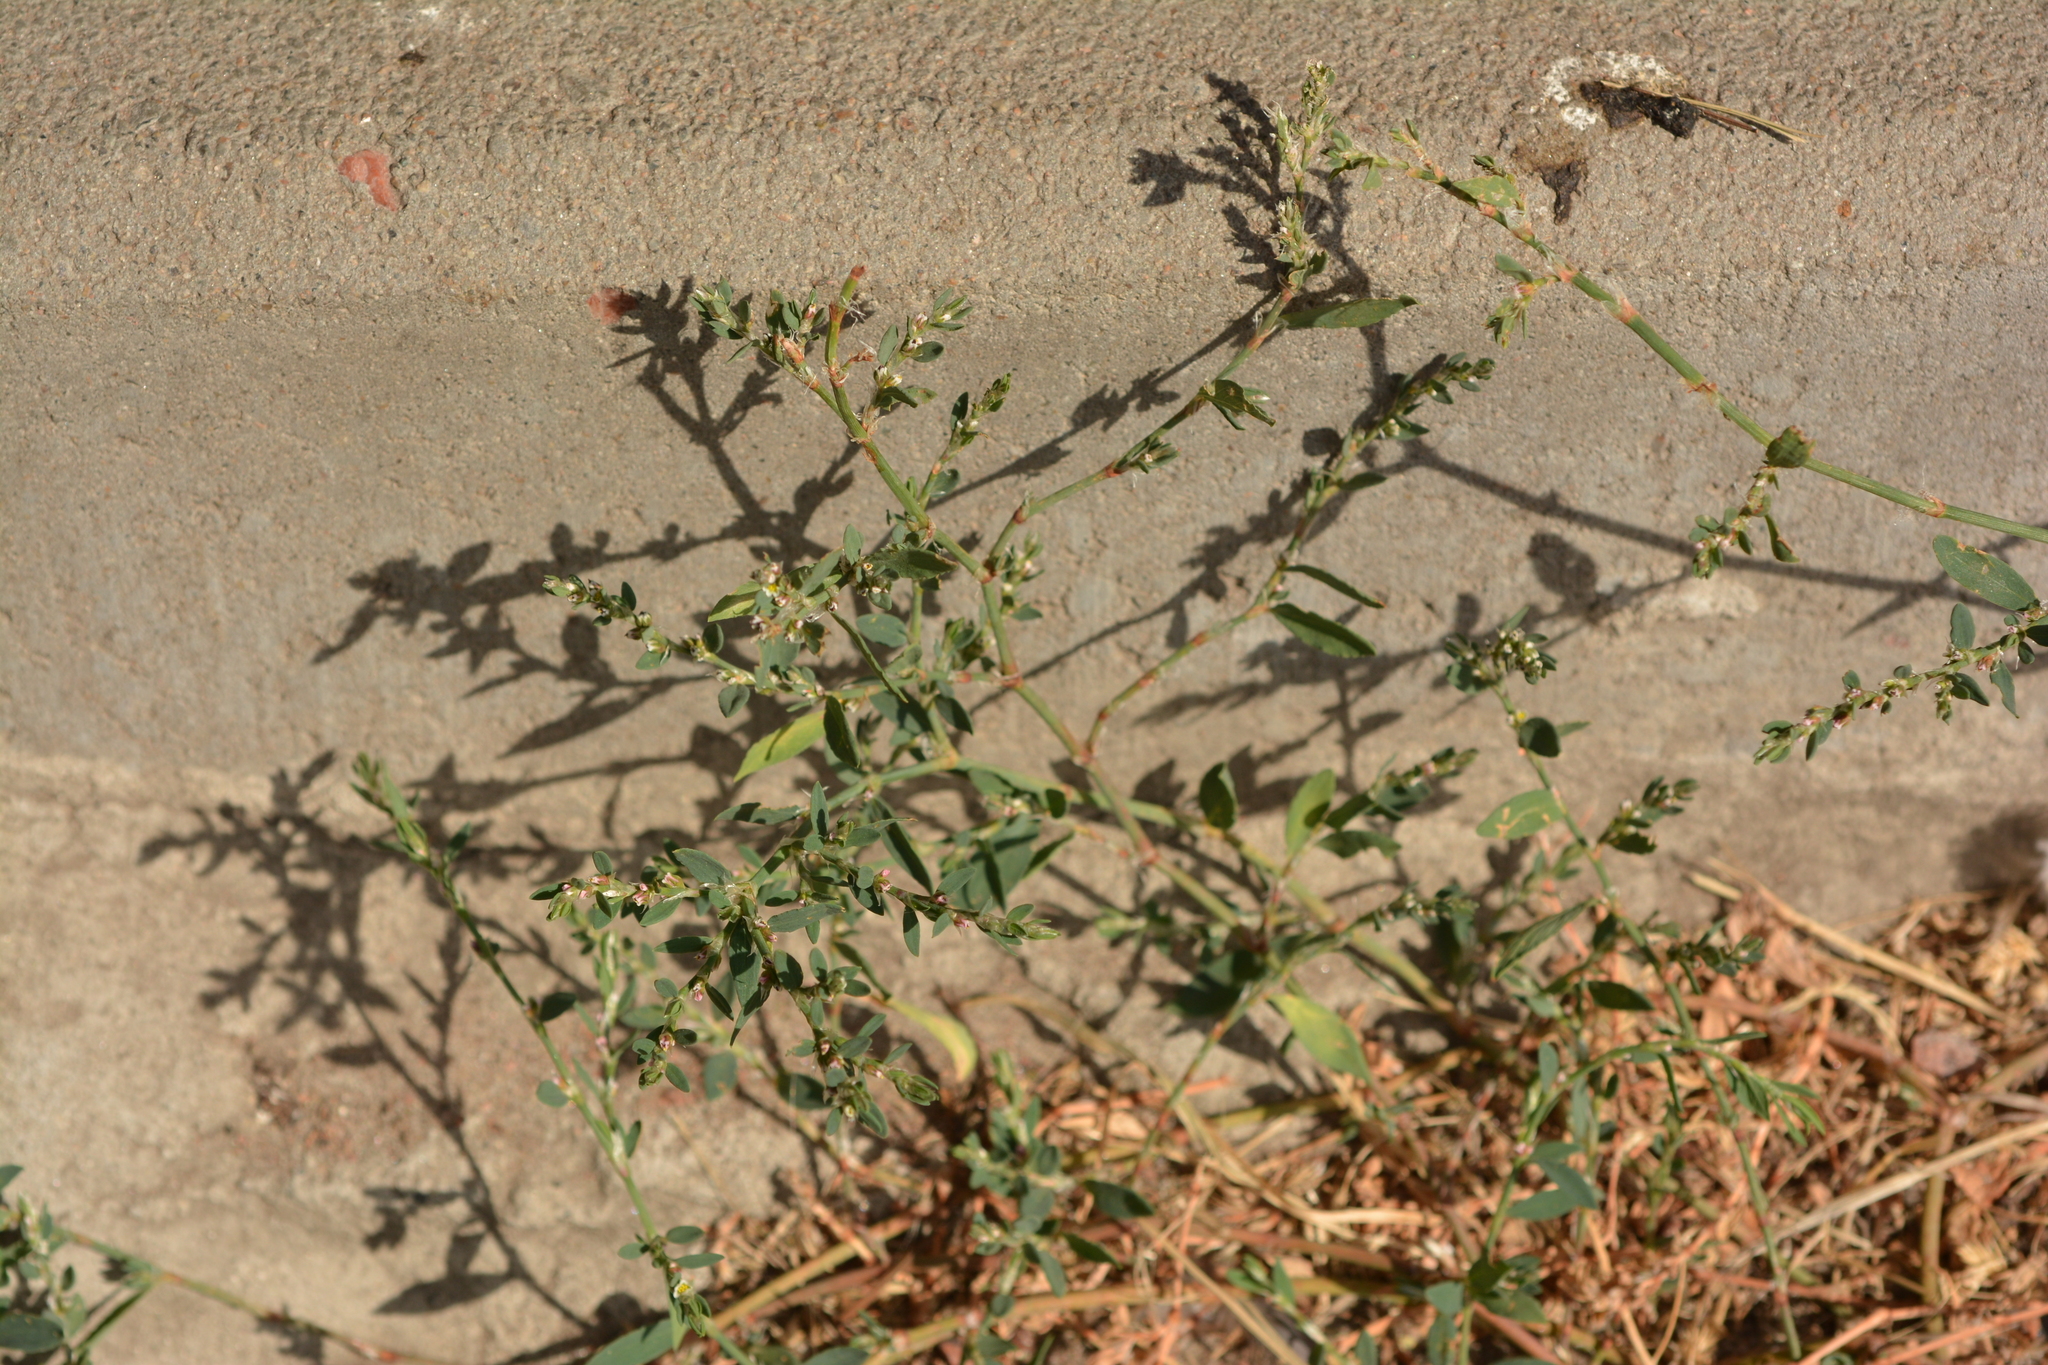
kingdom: Plantae
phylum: Tracheophyta
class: Magnoliopsida
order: Caryophyllales
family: Polygonaceae
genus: Polygonum
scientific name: Polygonum arenastrum
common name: Equal-leaved knotgrass
